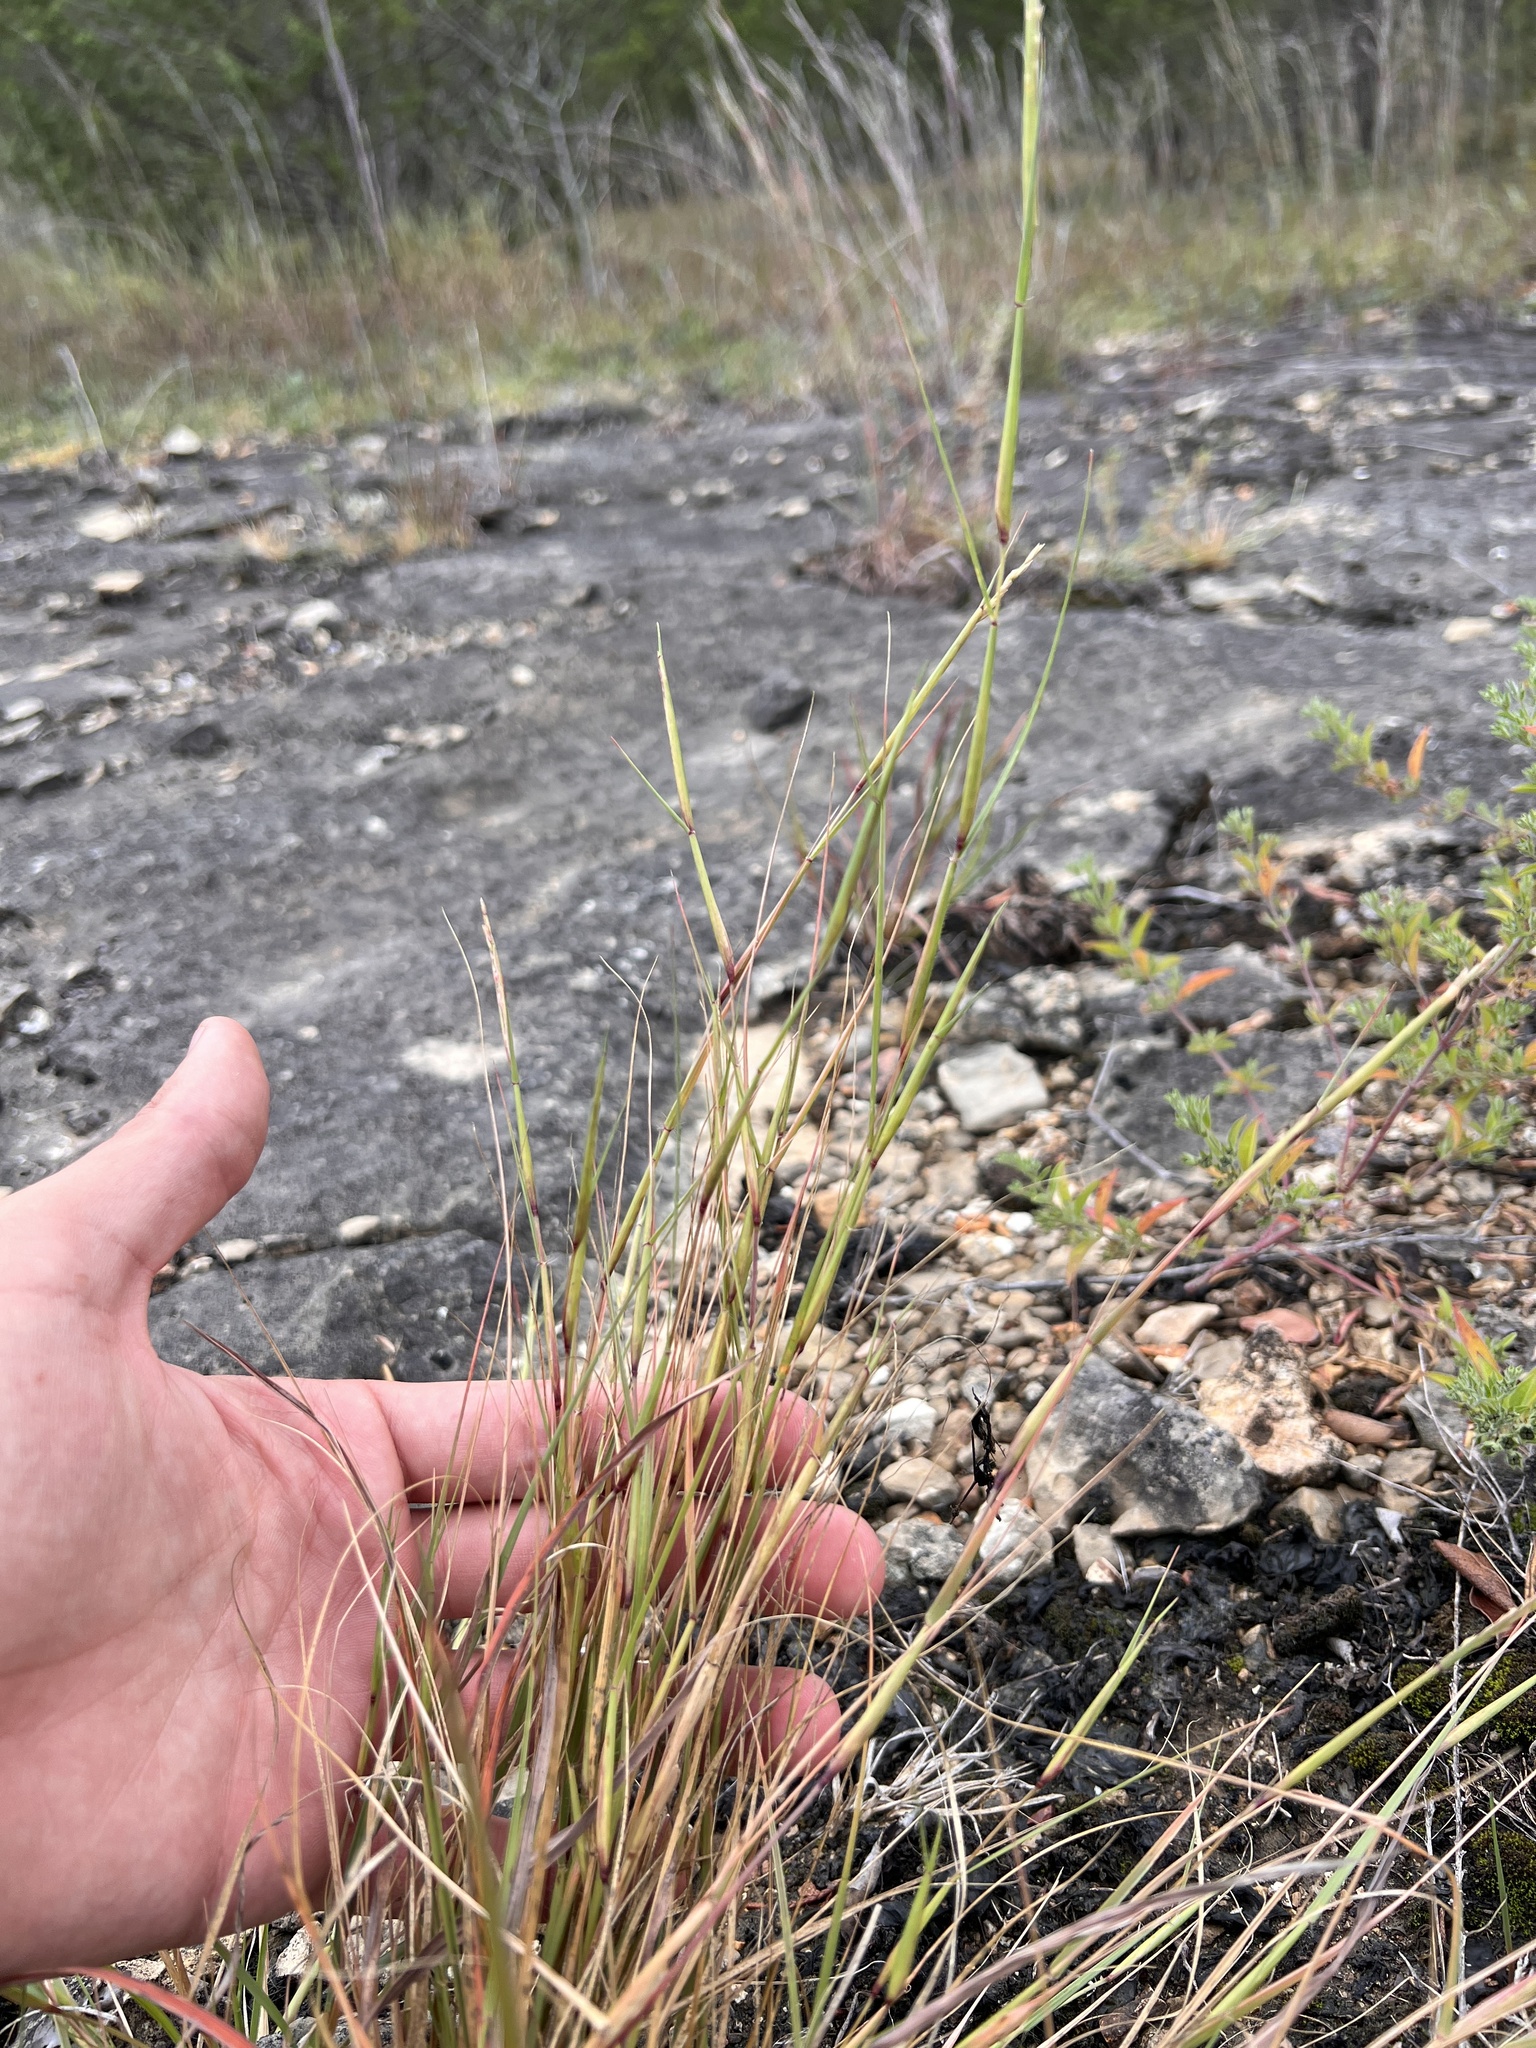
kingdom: Plantae
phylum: Tracheophyta
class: Liliopsida
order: Poales
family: Poaceae
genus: Sporobolus
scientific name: Sporobolus vaginiflorus
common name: Poverty dropseed
